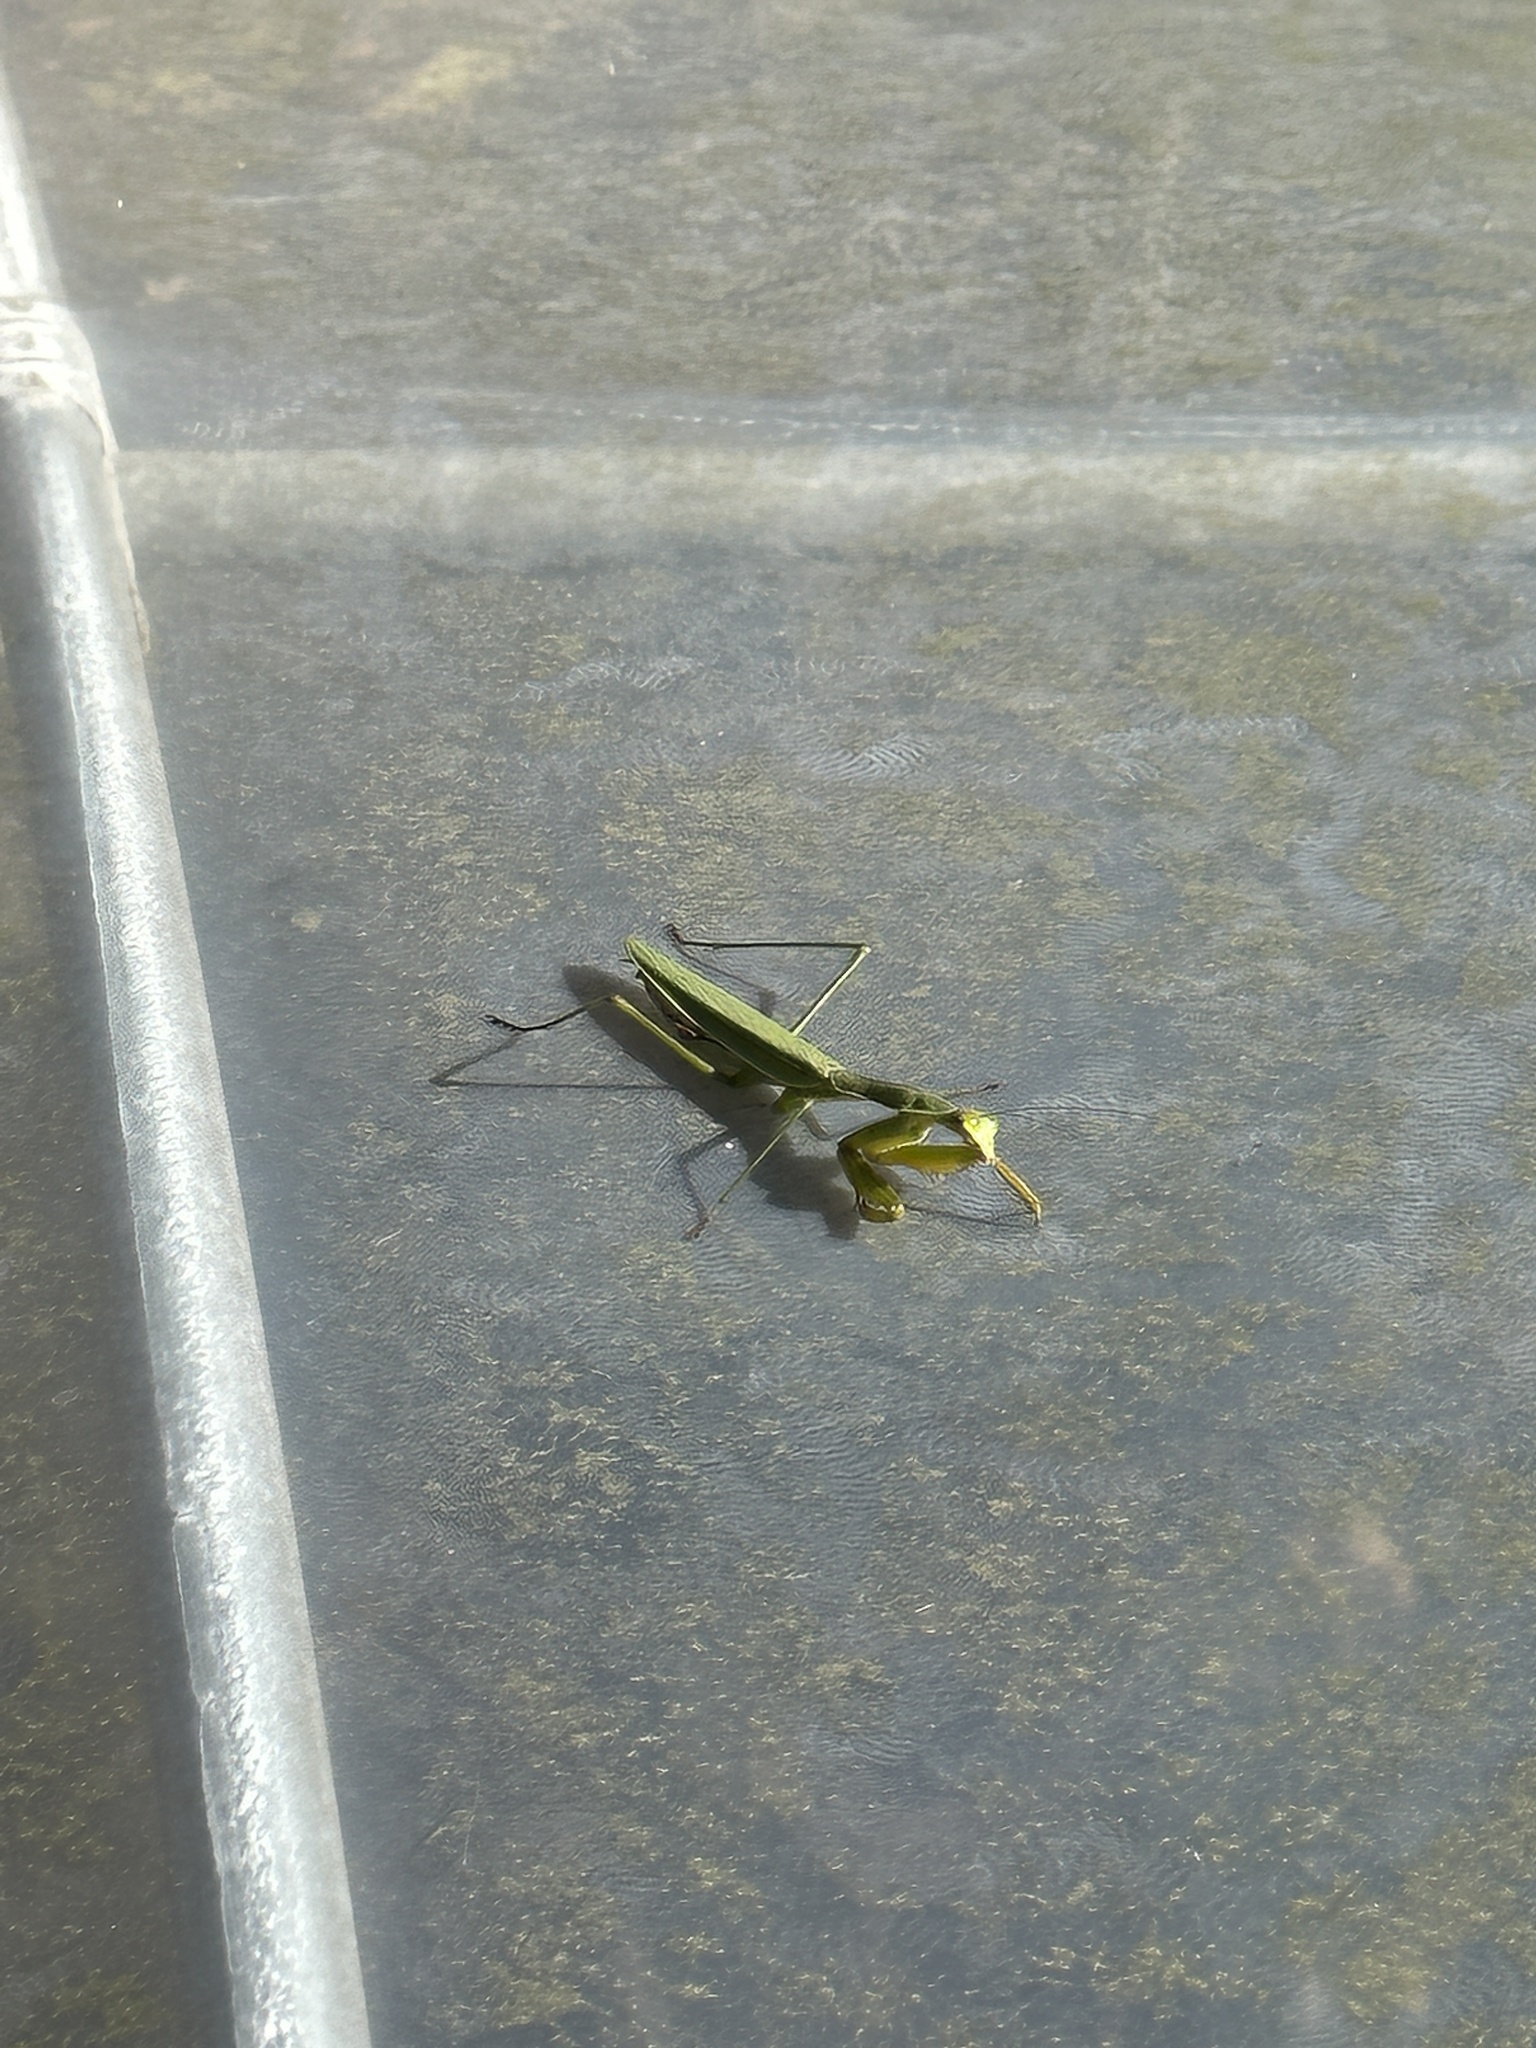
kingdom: Animalia
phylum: Arthropoda
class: Insecta
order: Mantodea
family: Mantidae
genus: Tenodera
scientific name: Tenodera sinensis
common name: Chinese mantis
